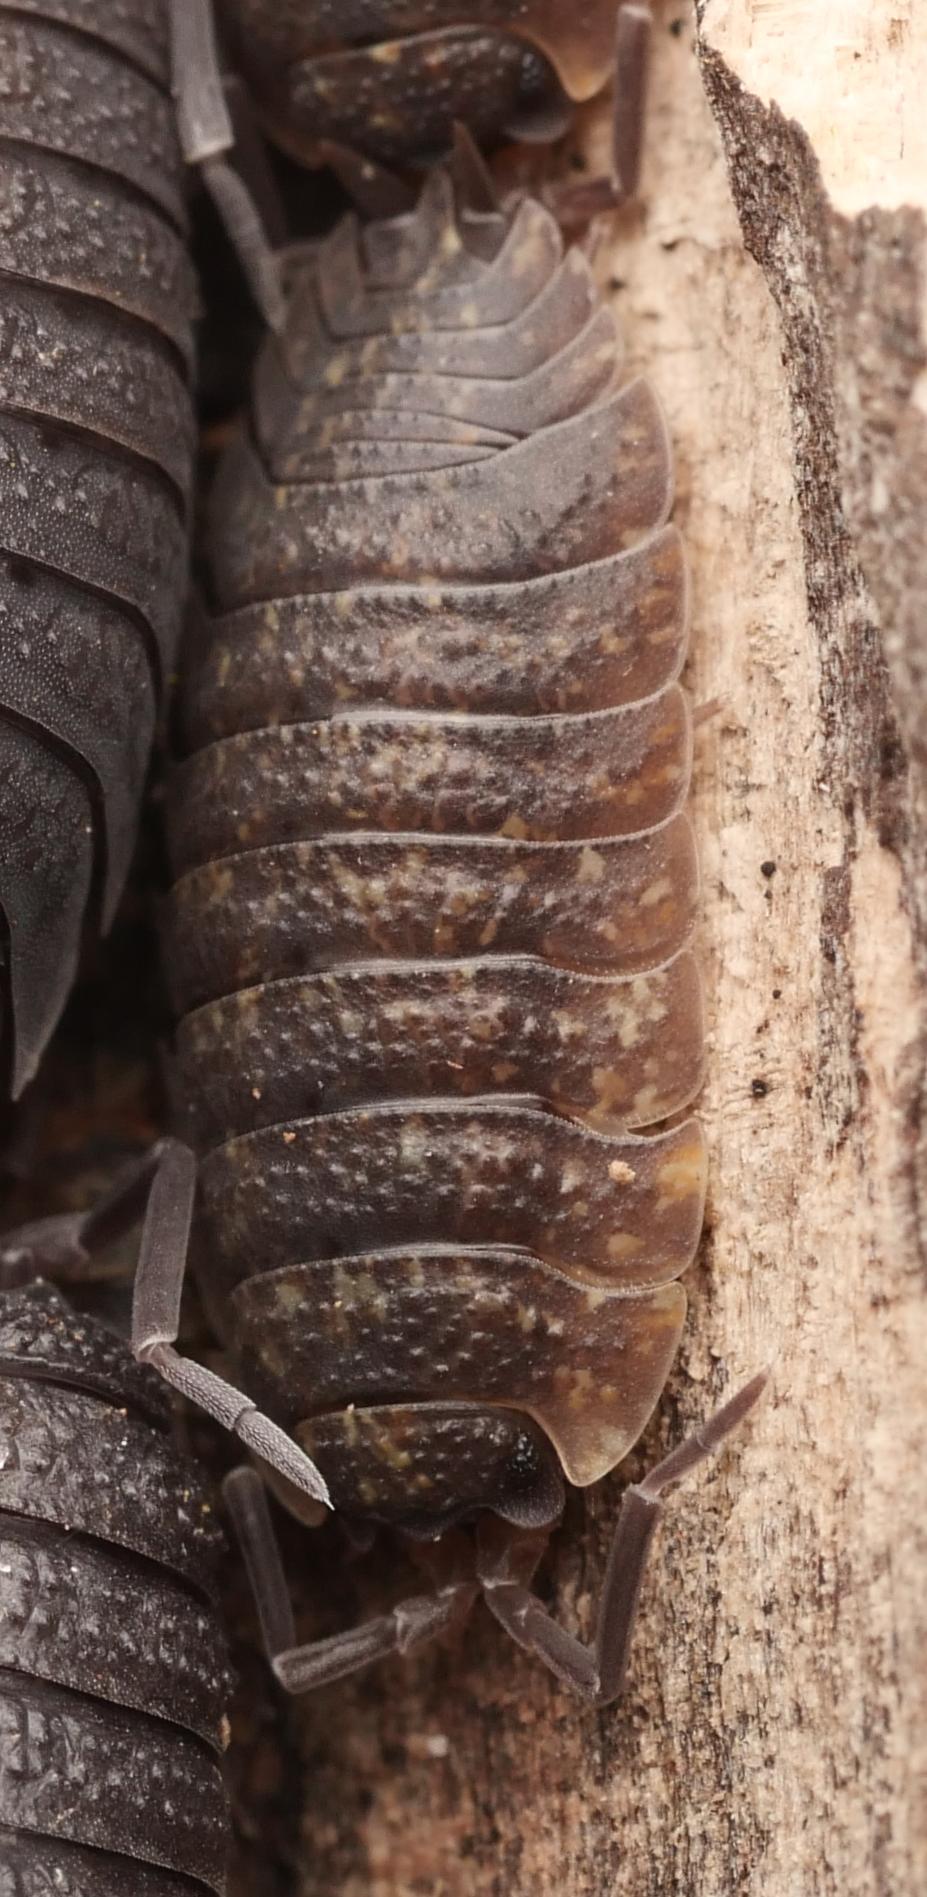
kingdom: Animalia
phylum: Arthropoda
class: Malacostraca
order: Isopoda
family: Porcellionidae
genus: Porcellio
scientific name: Porcellio scaber
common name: Common rough woodlouse
